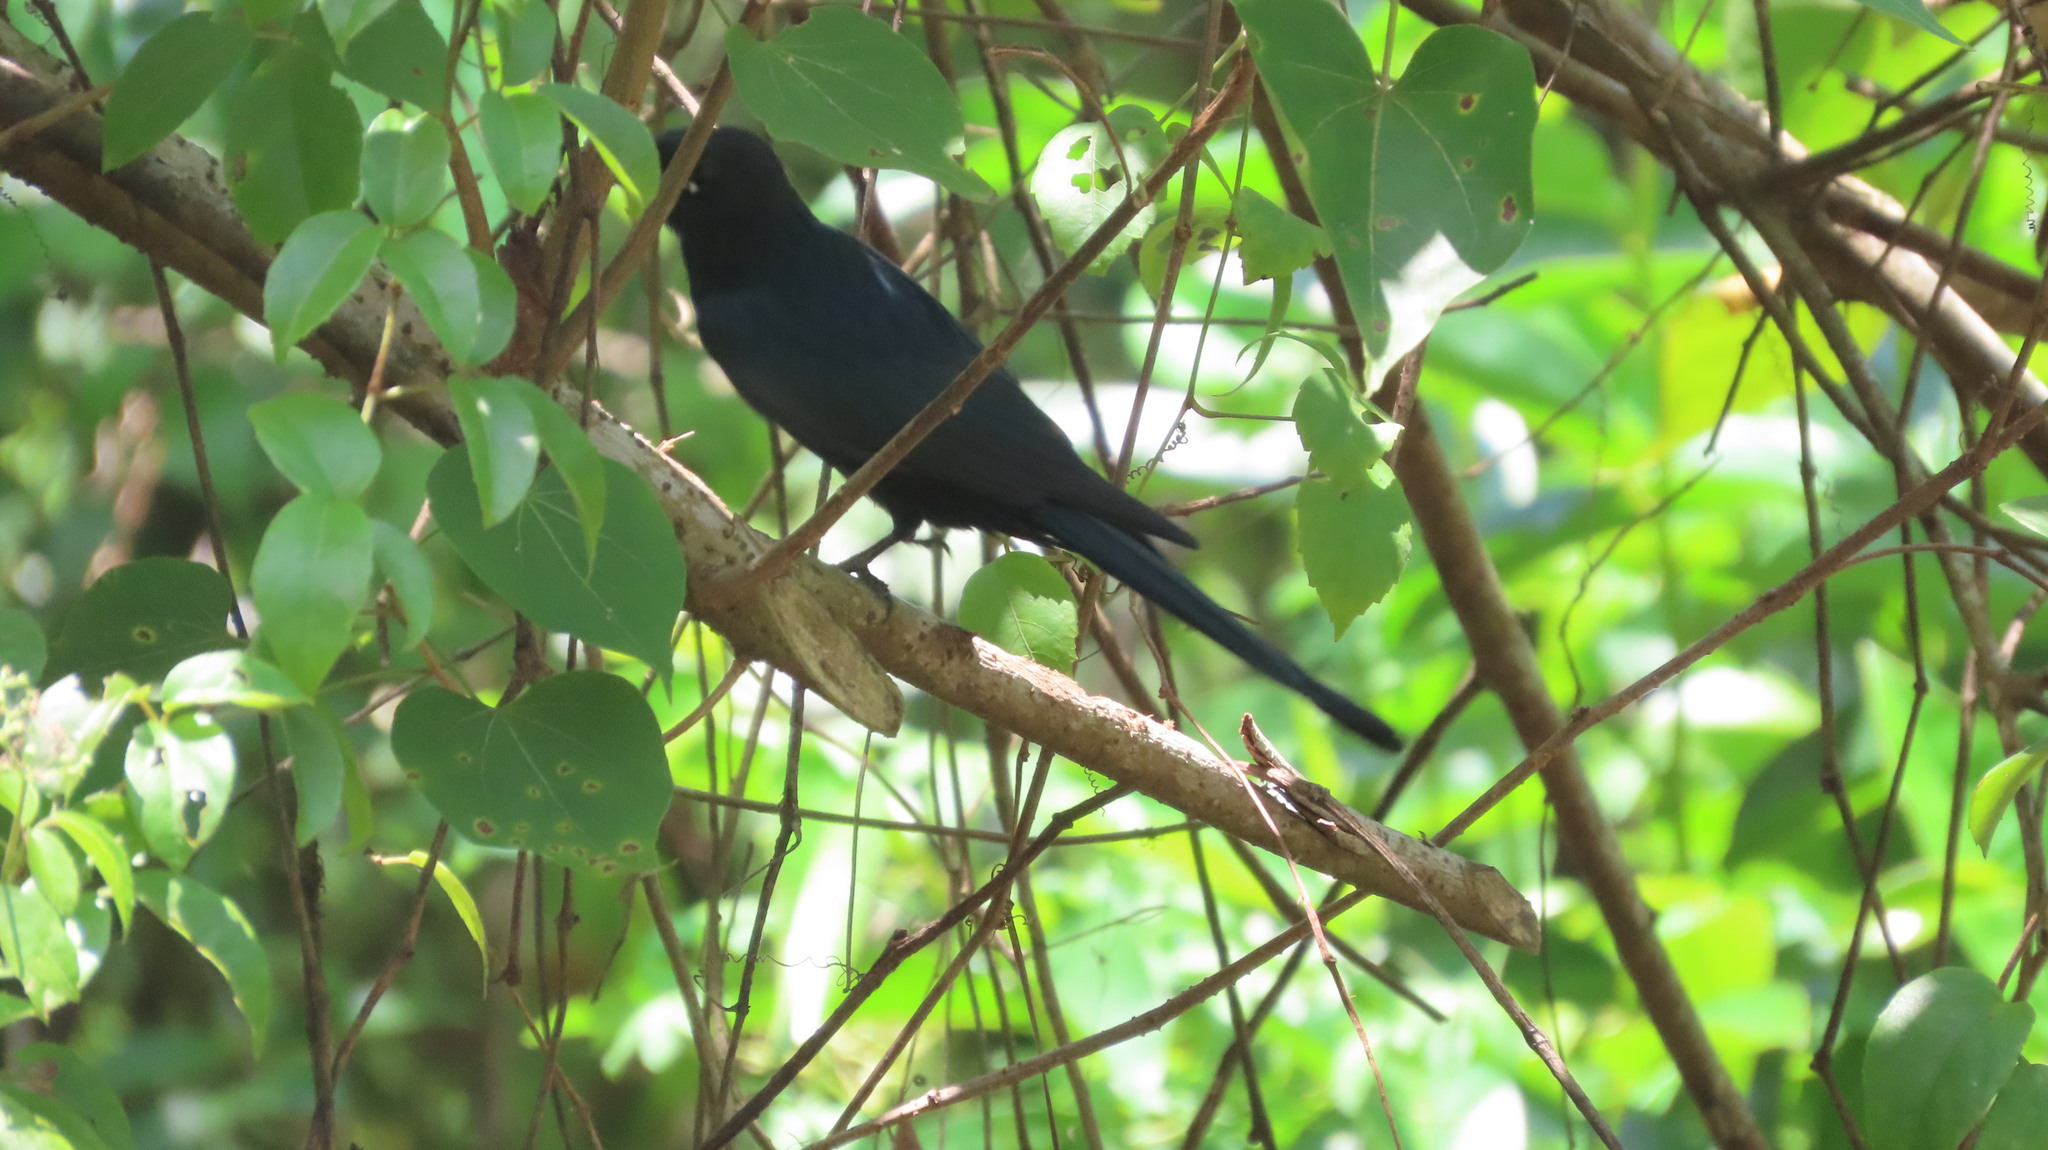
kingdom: Animalia
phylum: Chordata
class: Aves
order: Passeriformes
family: Dicruridae
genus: Dicrurus
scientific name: Dicrurus macrocercus
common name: Black drongo
